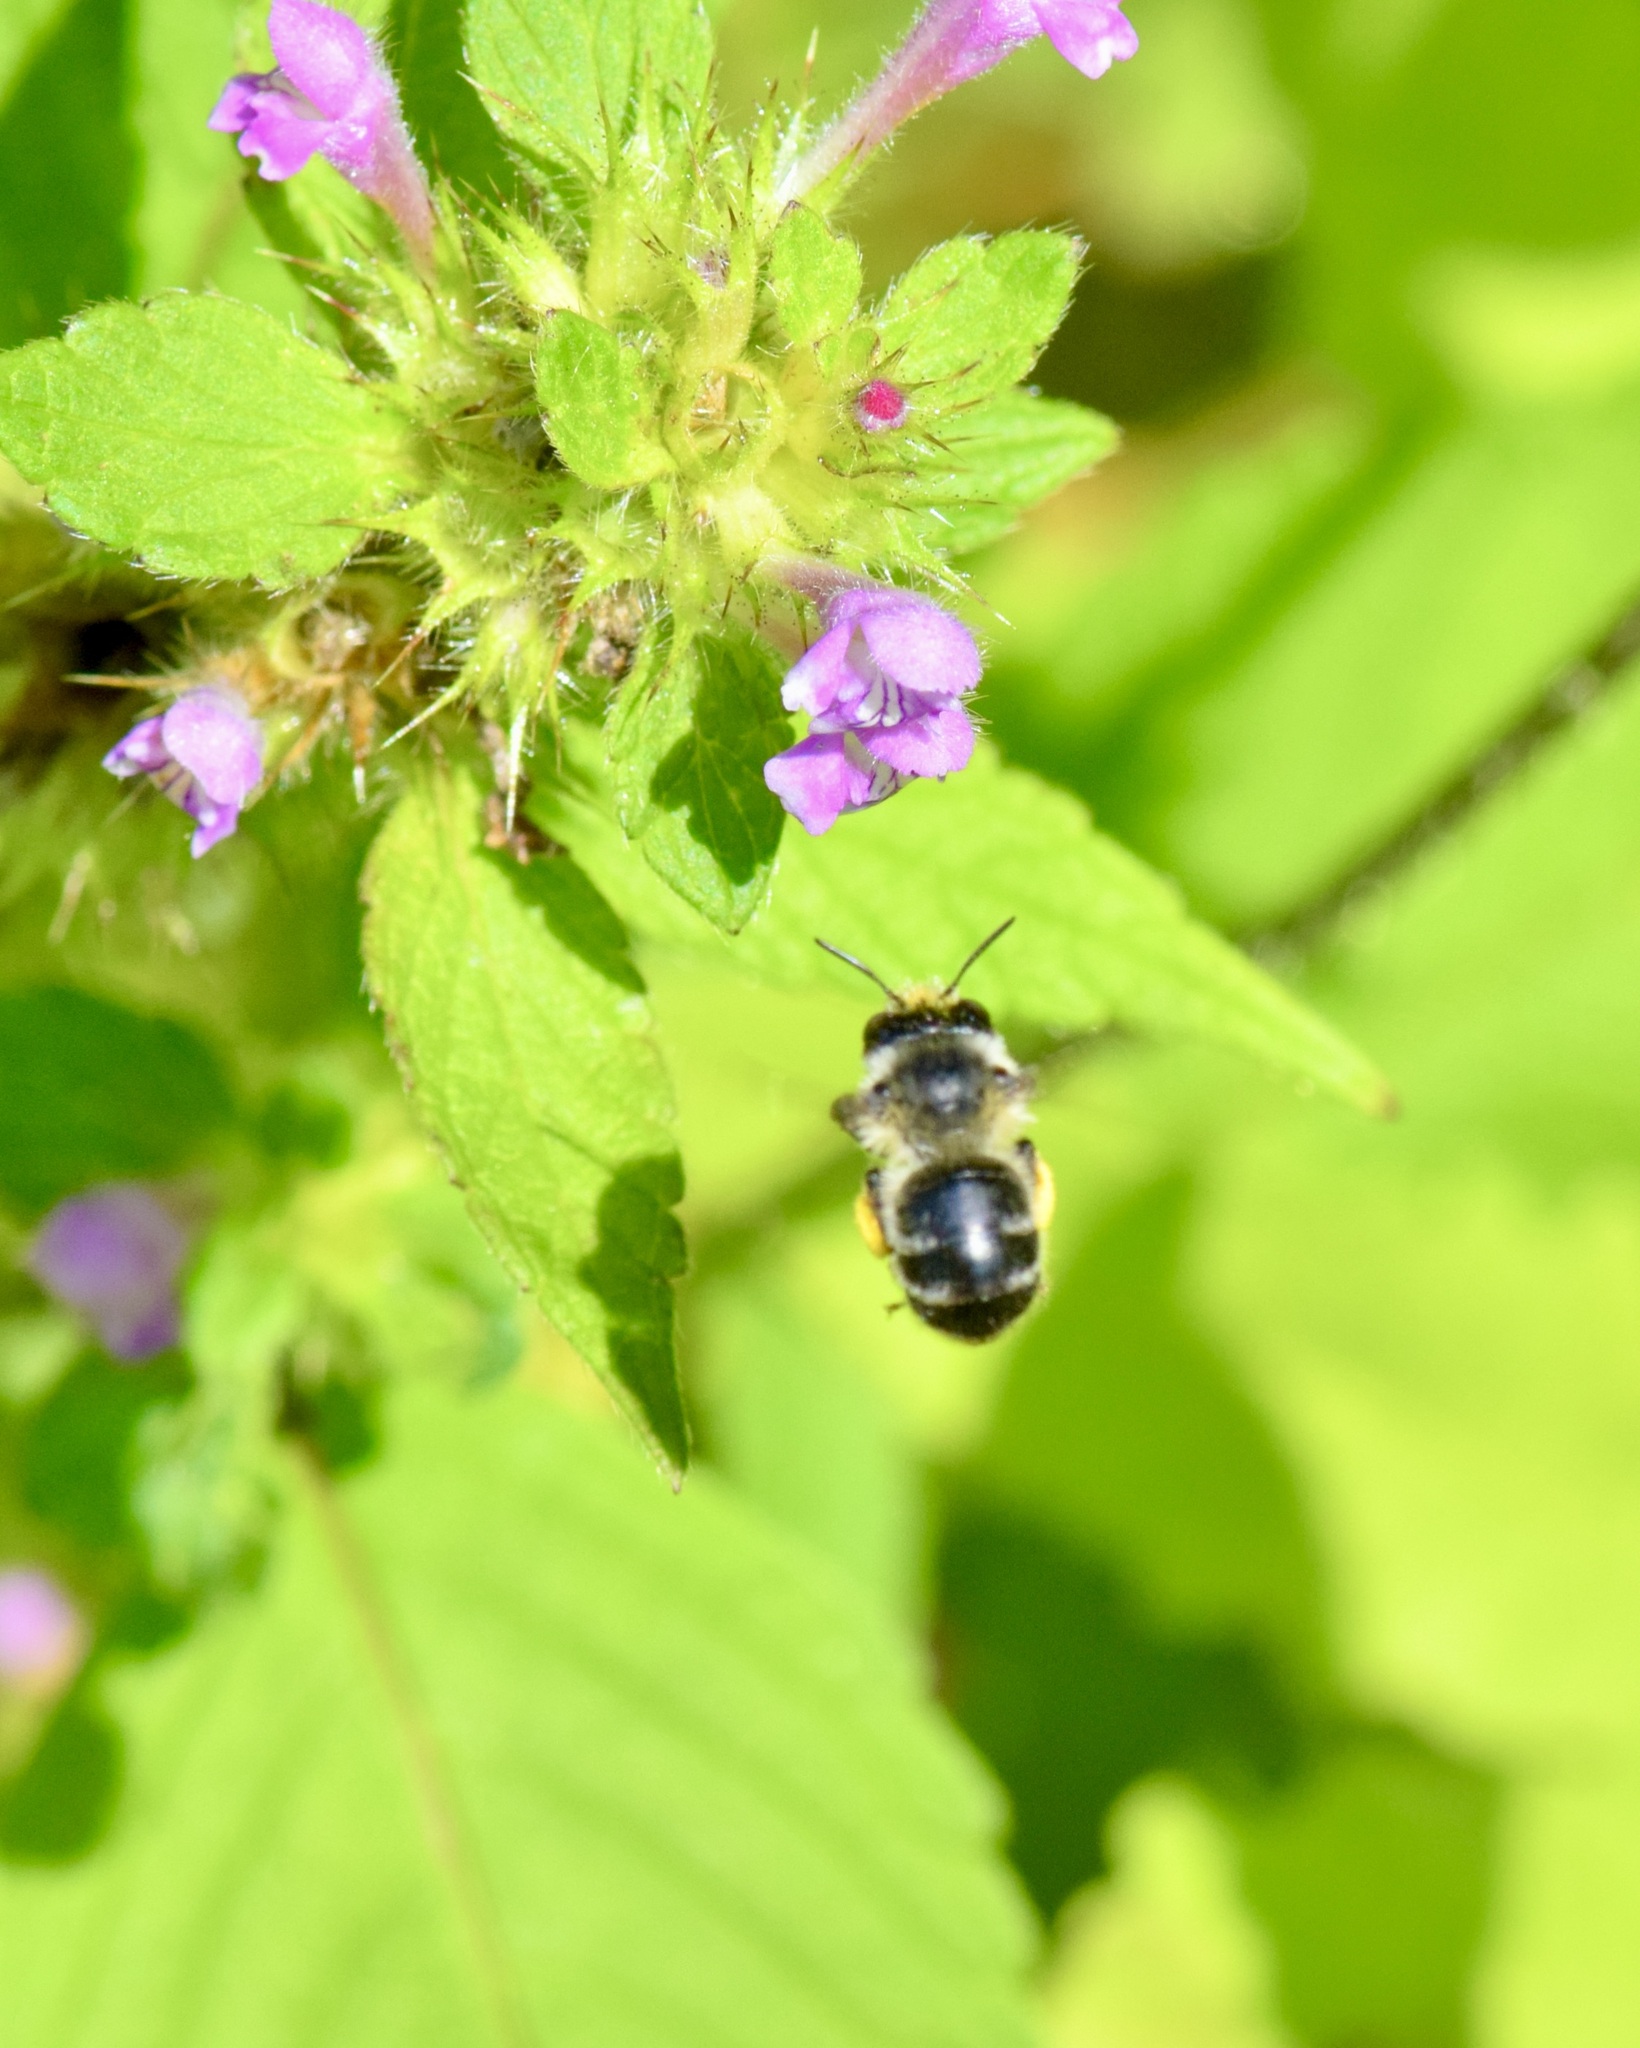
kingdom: Animalia
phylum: Arthropoda
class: Insecta
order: Hymenoptera
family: Apidae
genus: Anthophora
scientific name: Anthophora terminalis
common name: Orange-tipped wood-digger bee
